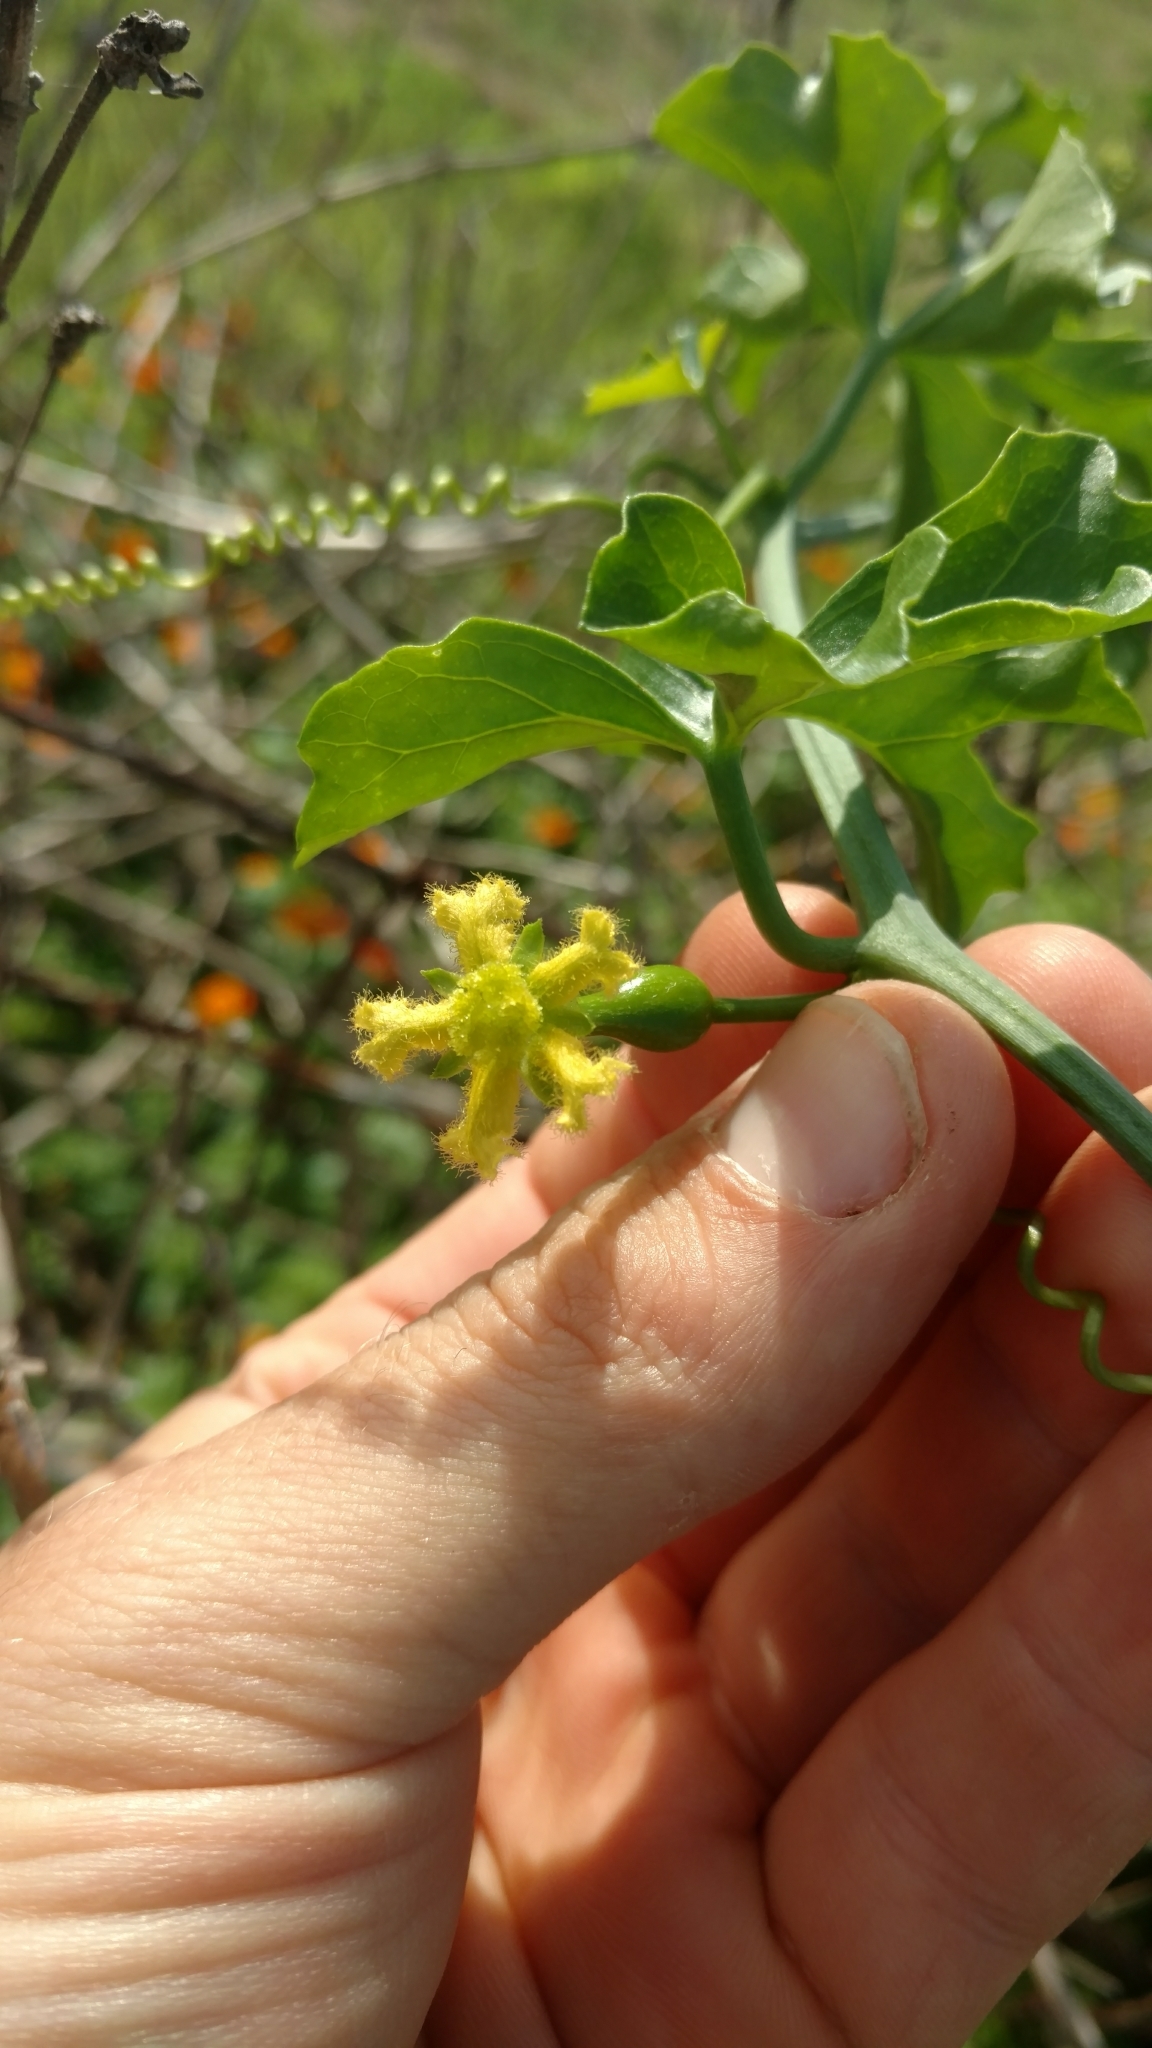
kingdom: Plantae
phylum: Tracheophyta
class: Magnoliopsida
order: Cucurbitales
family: Cucurbitaceae
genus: Ibervillea
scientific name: Ibervillea lindheimeri
